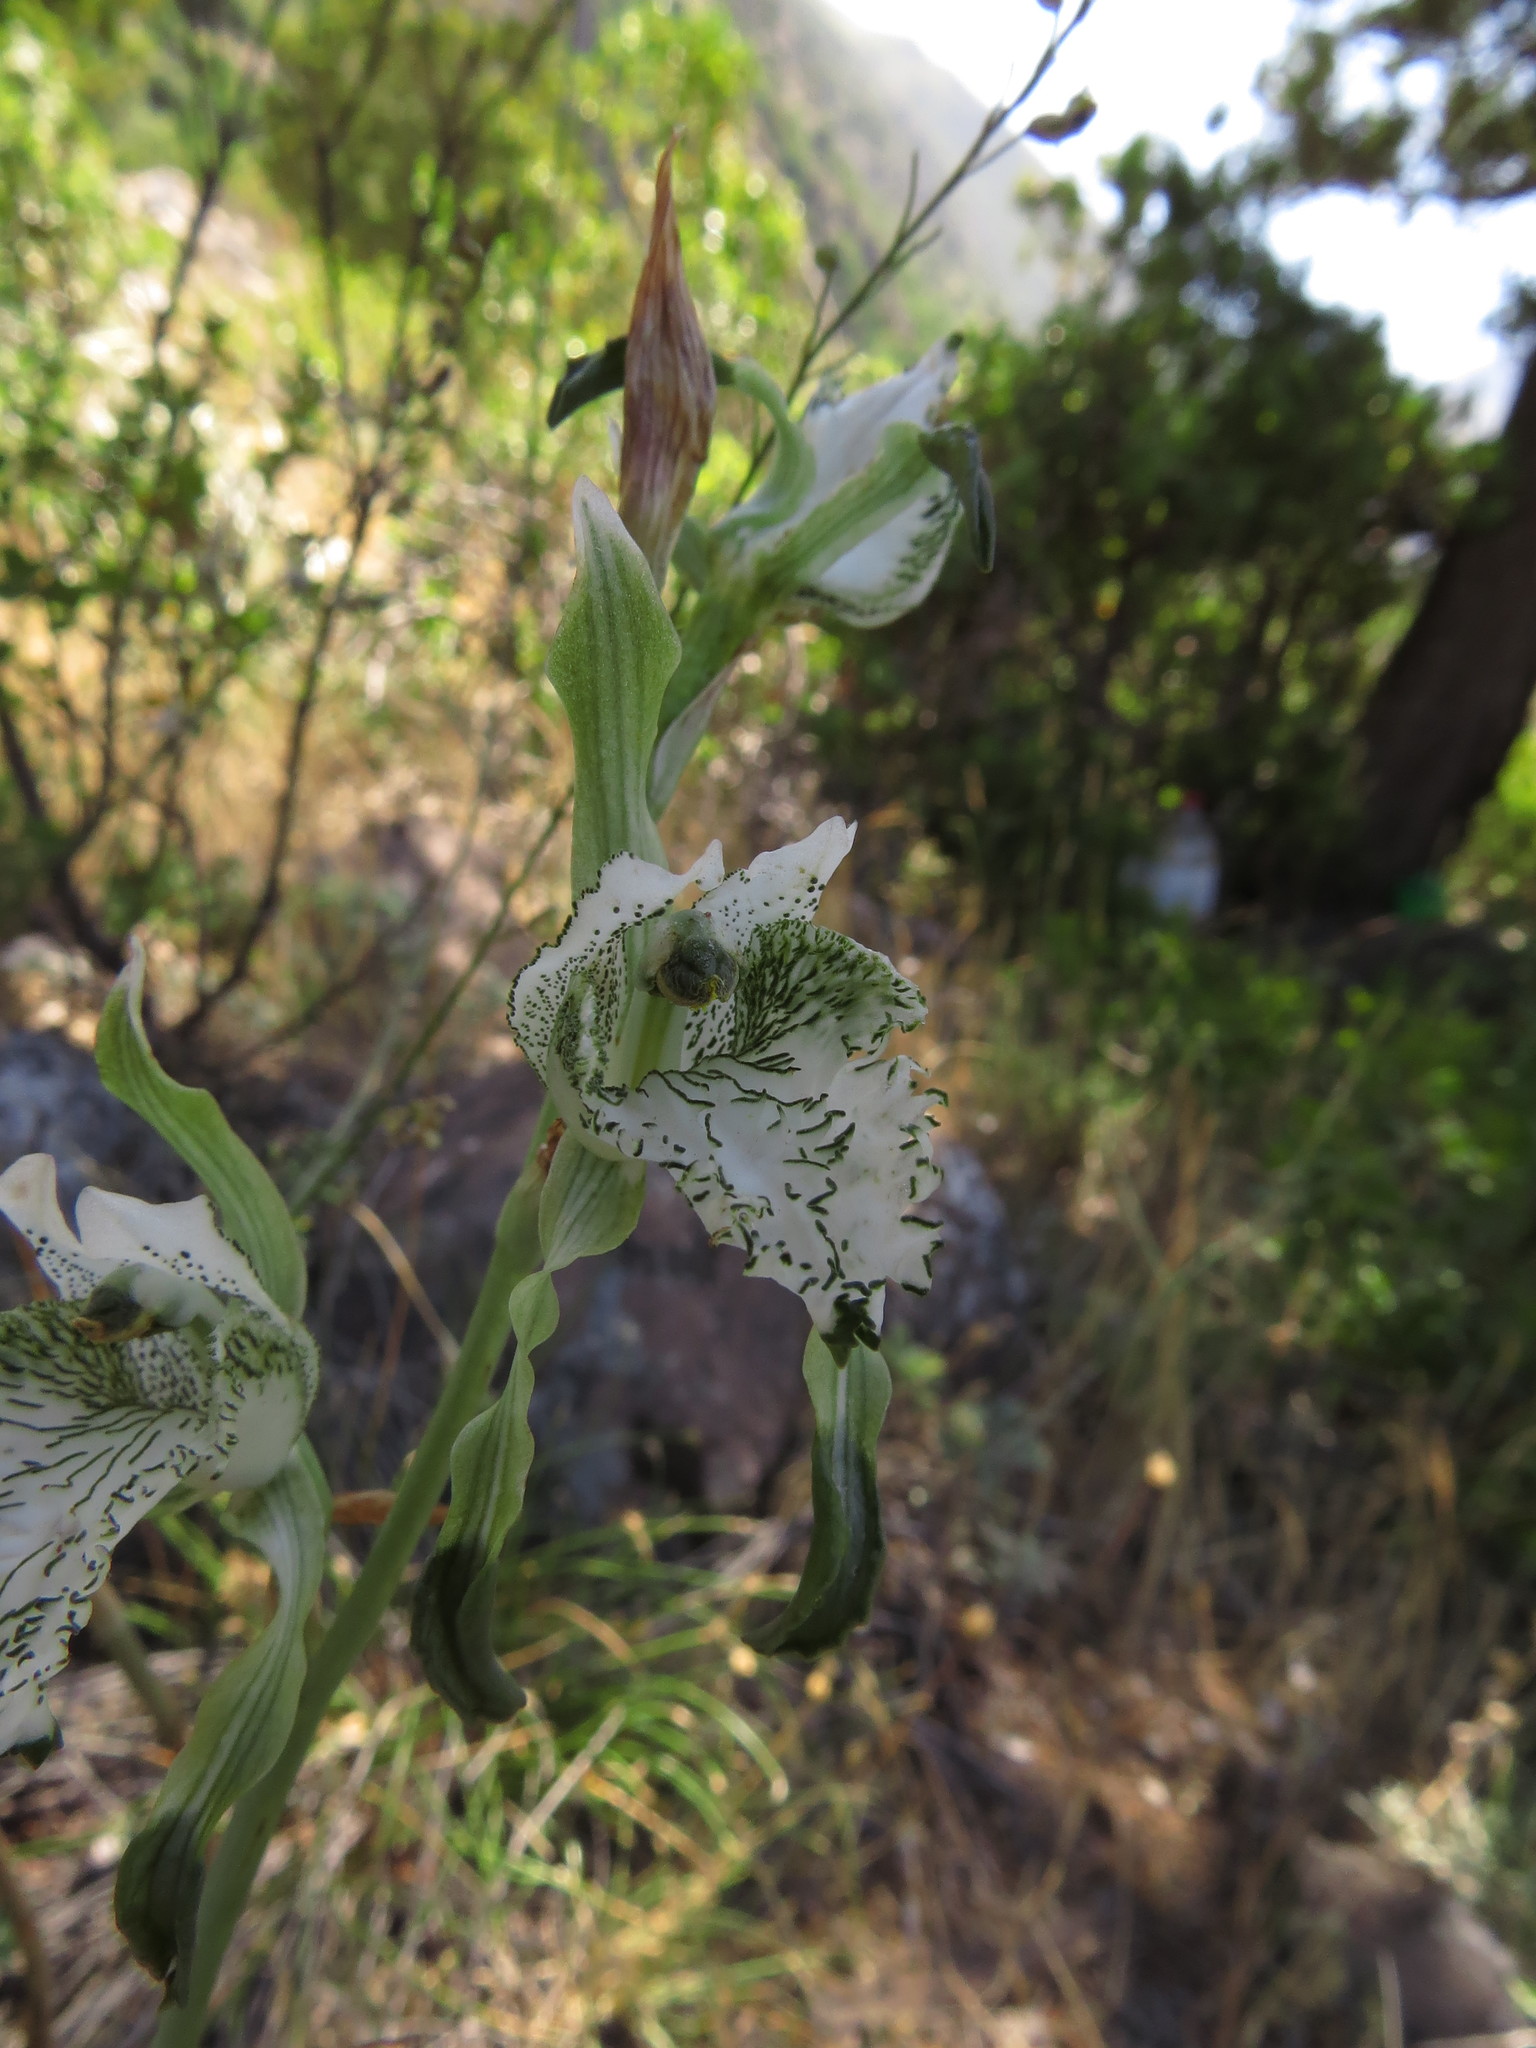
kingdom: Plantae
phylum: Tracheophyta
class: Liliopsida
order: Asparagales
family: Orchidaceae
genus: Chloraea
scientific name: Chloraea piquichen
